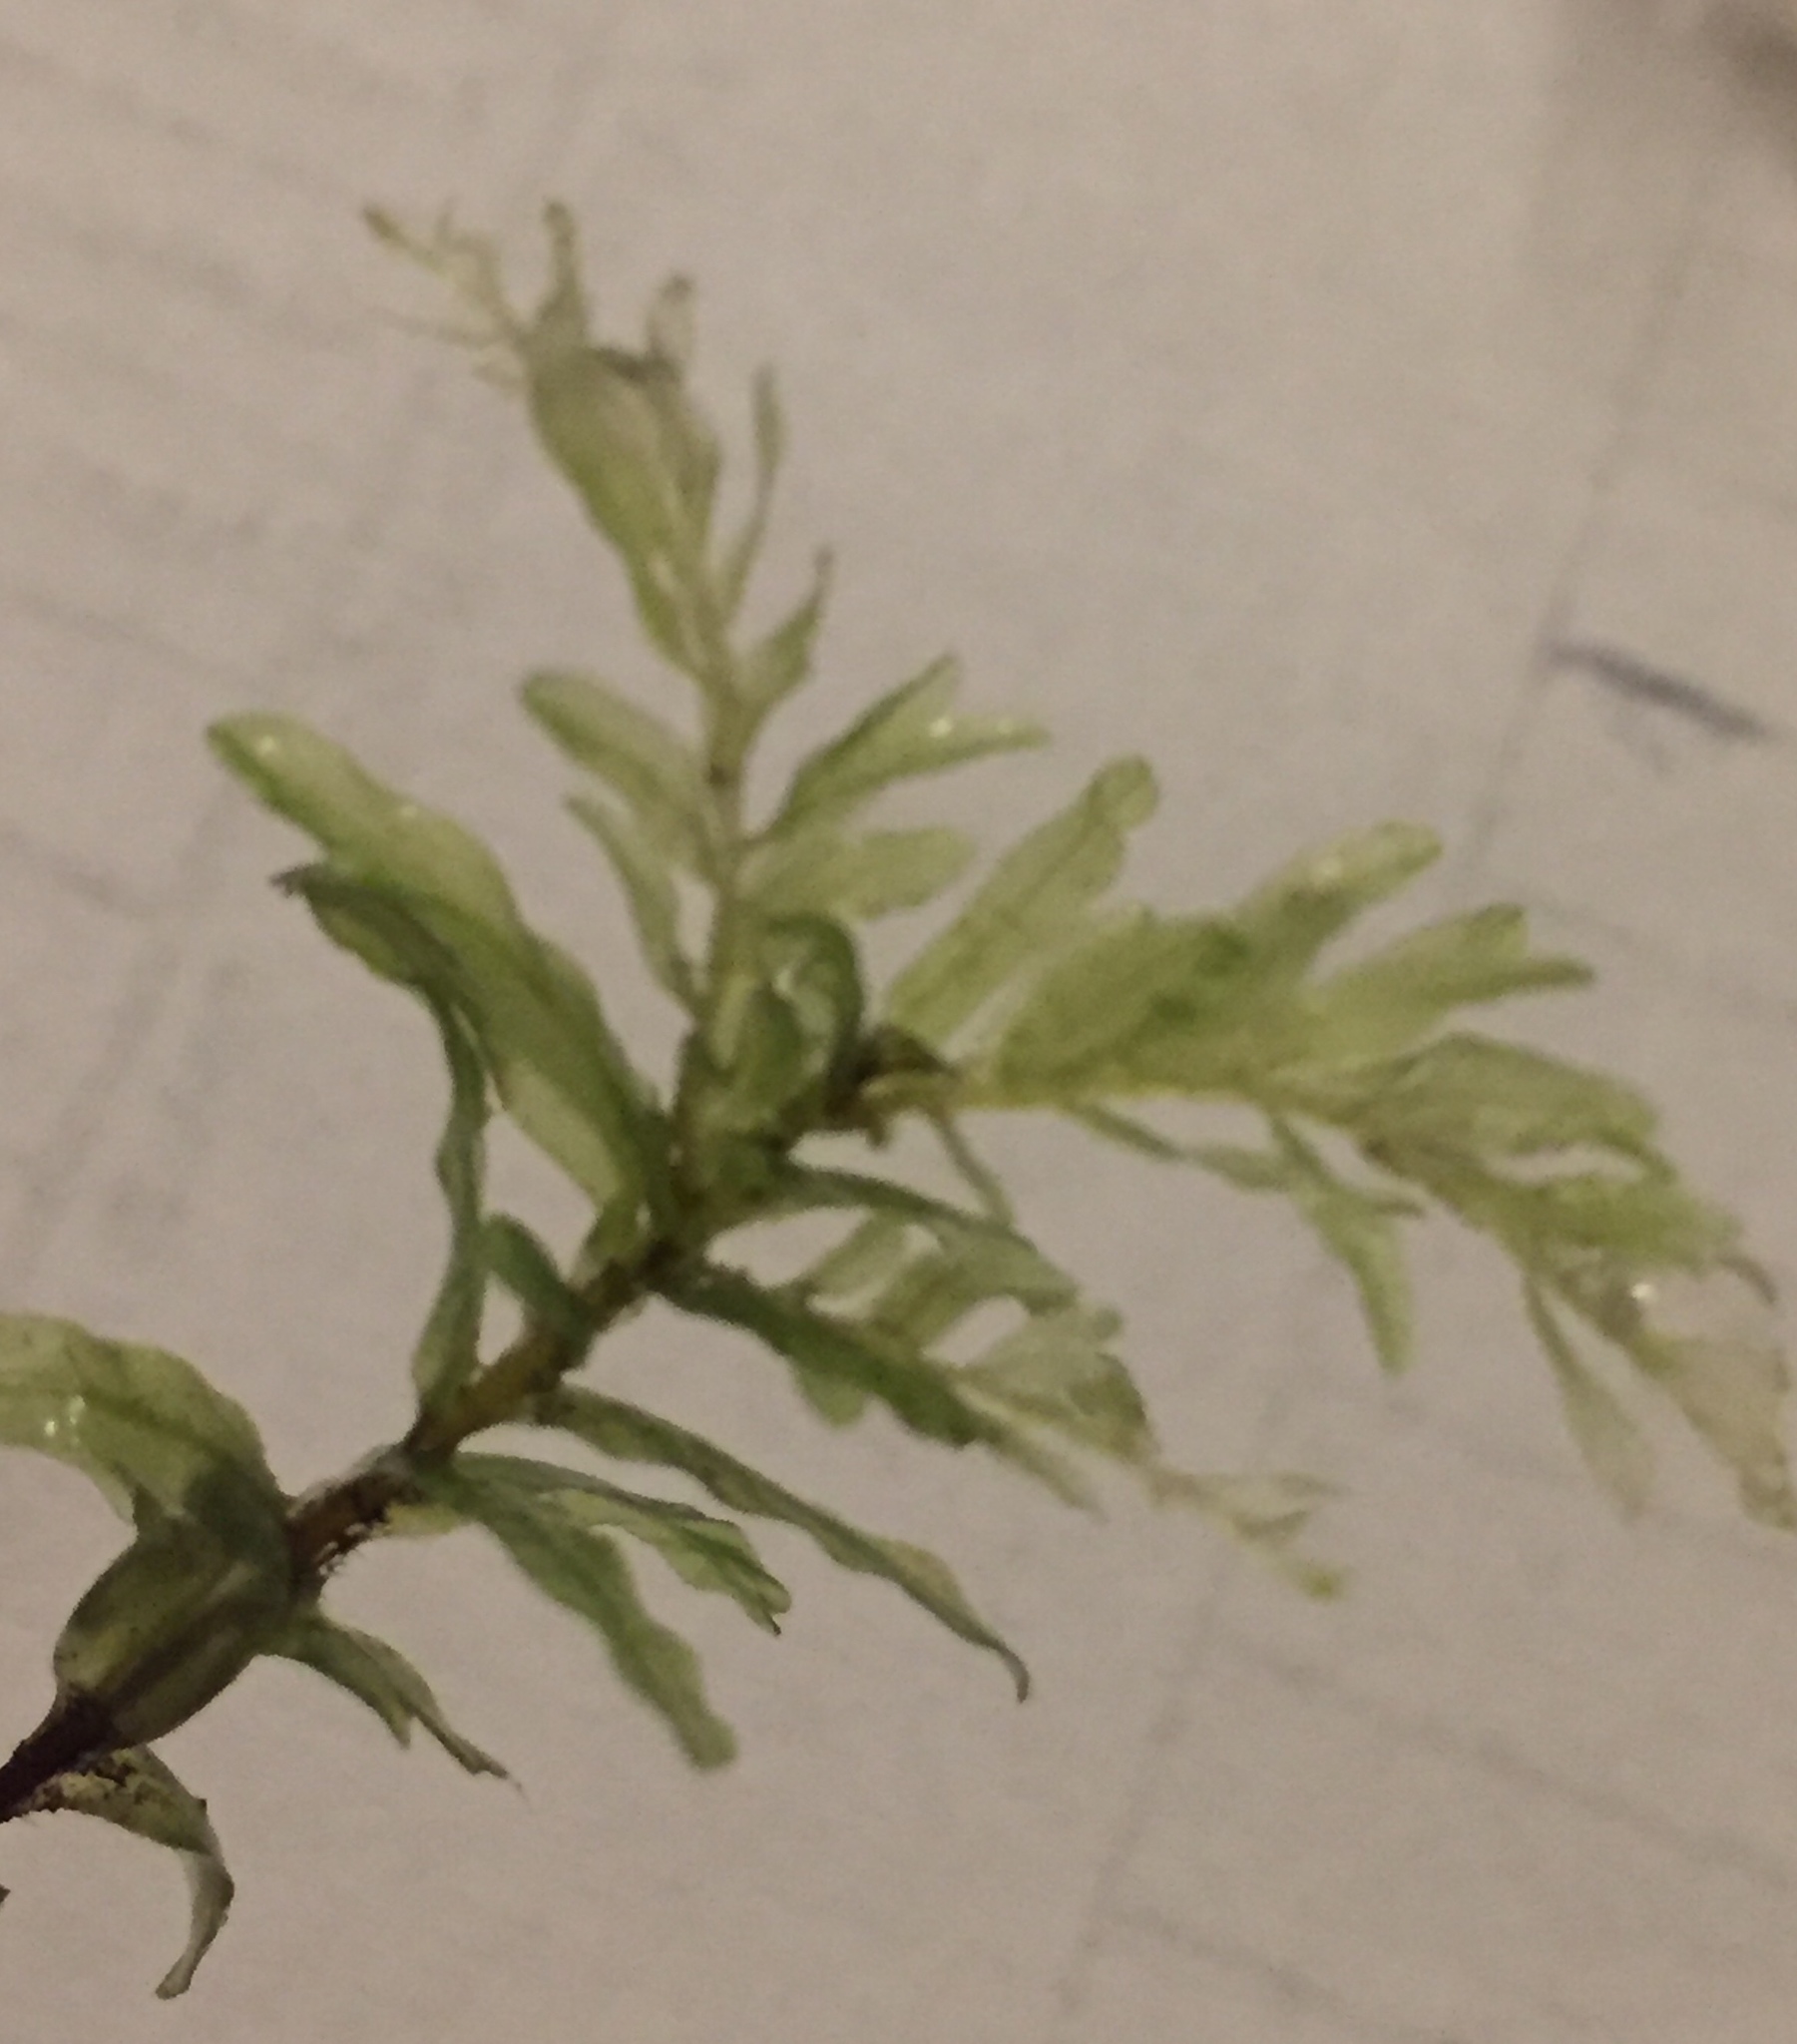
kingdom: Plantae
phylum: Bryophyta
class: Bryopsida
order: Bryales
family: Mniaceae
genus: Plagiomnium
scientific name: Plagiomnium undulatum
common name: Hart's-tongue thyme-moss
